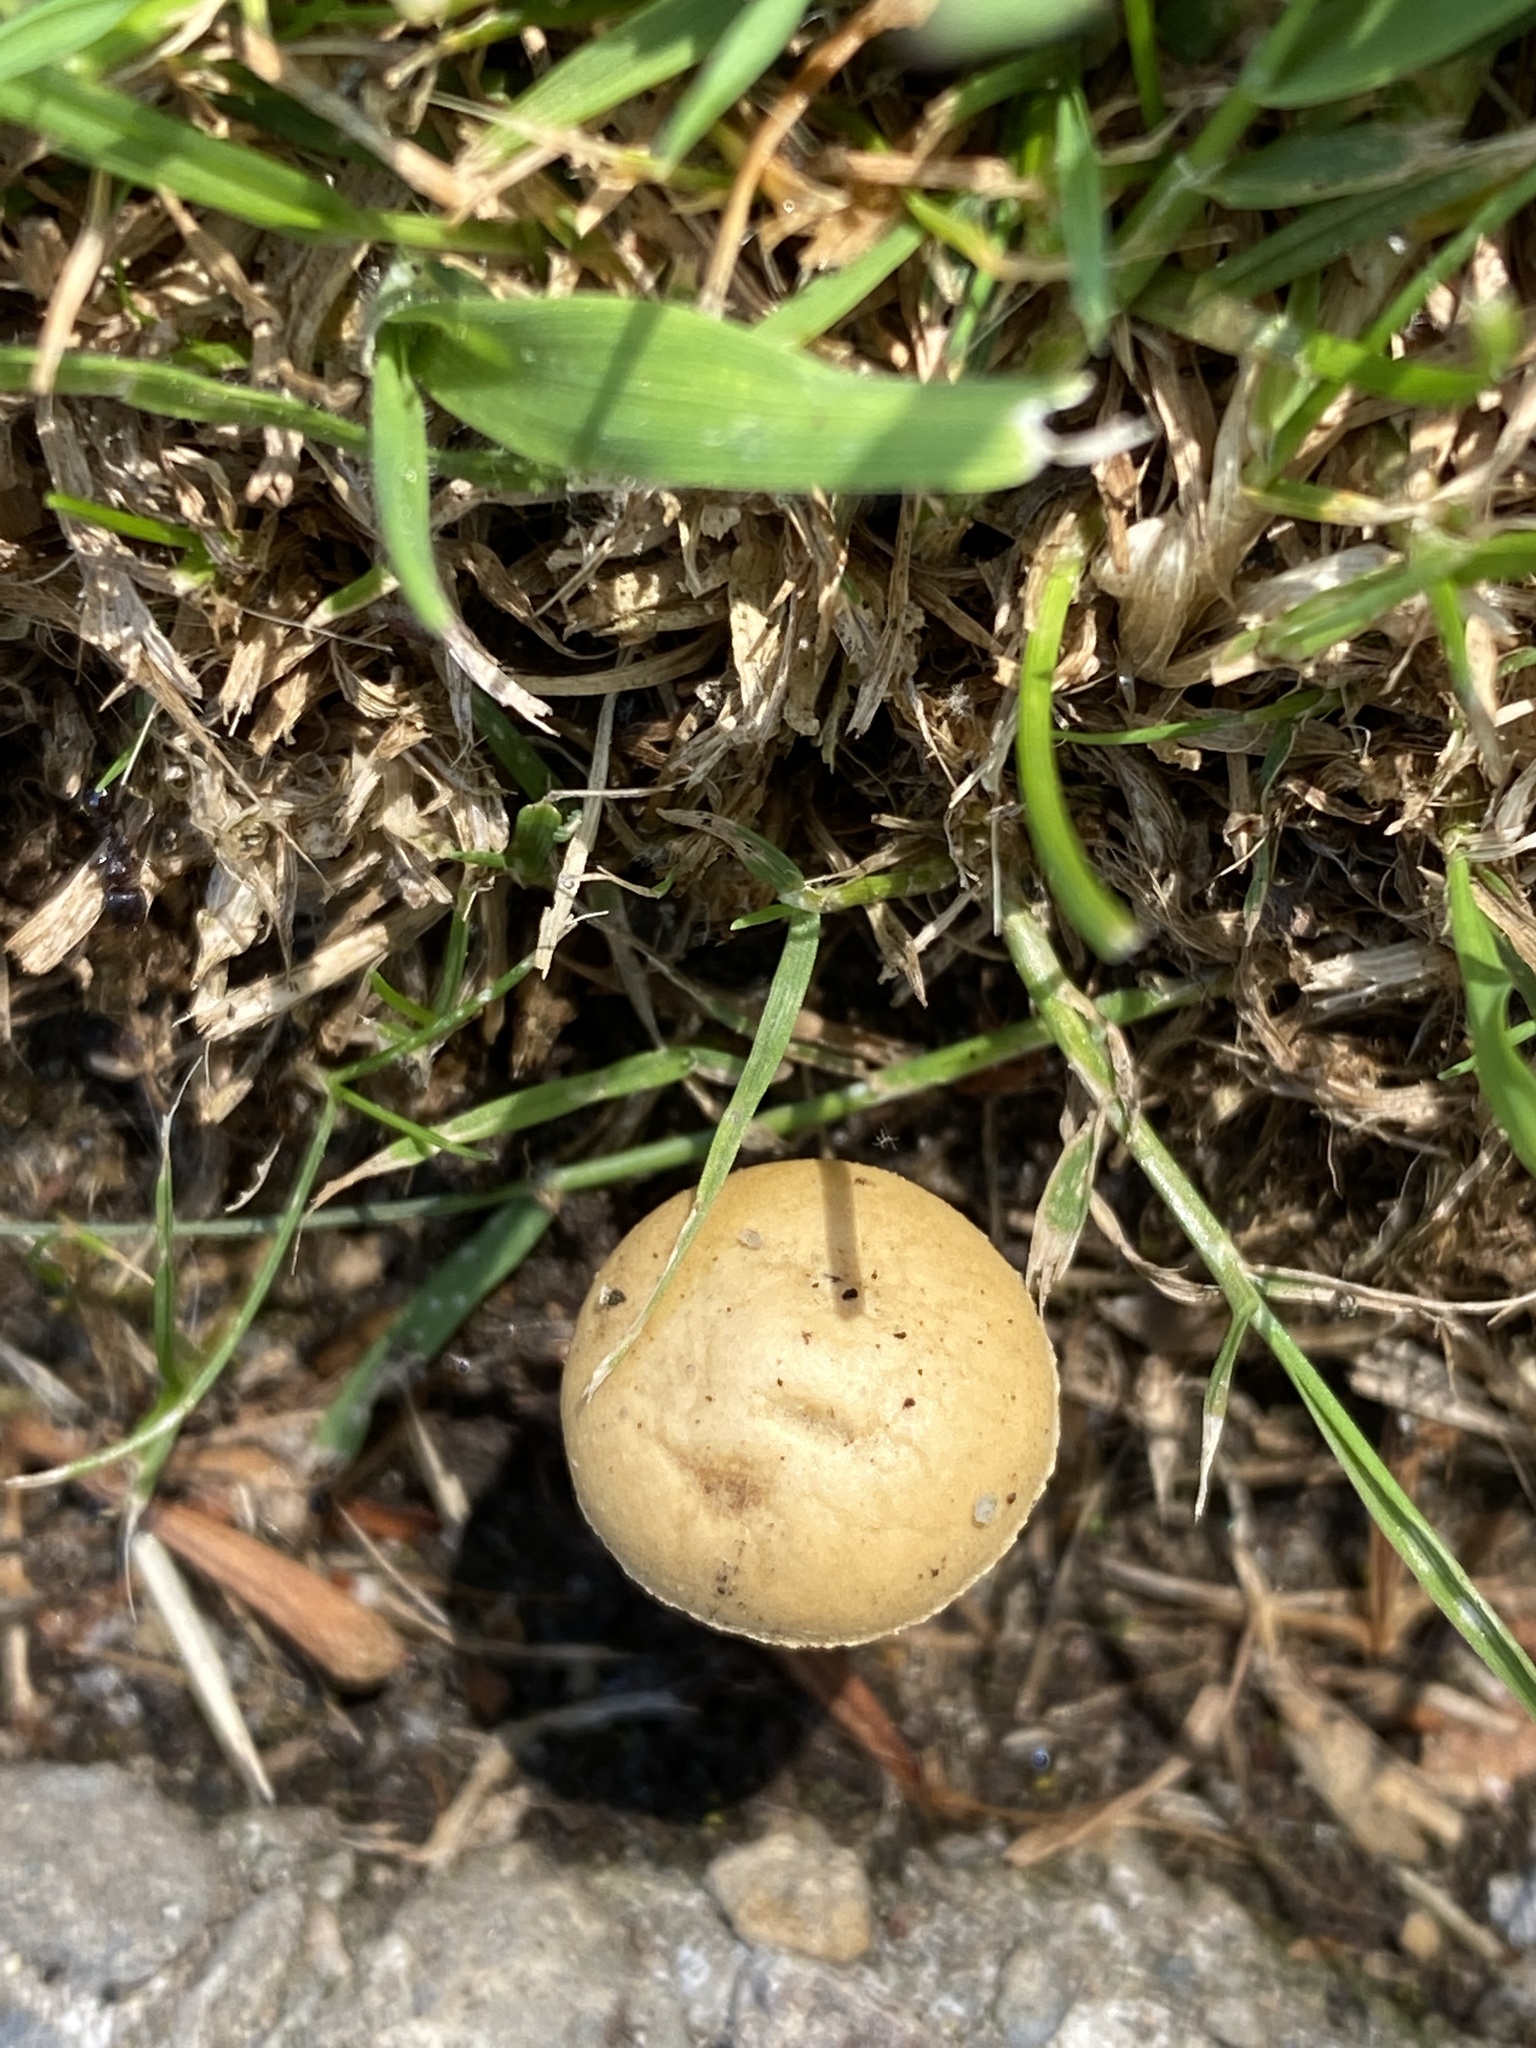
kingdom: Fungi
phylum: Basidiomycota
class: Agaricomycetes
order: Agaricales
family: Strophariaceae
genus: Agrocybe
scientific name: Agrocybe pediades
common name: Common fieldcap
